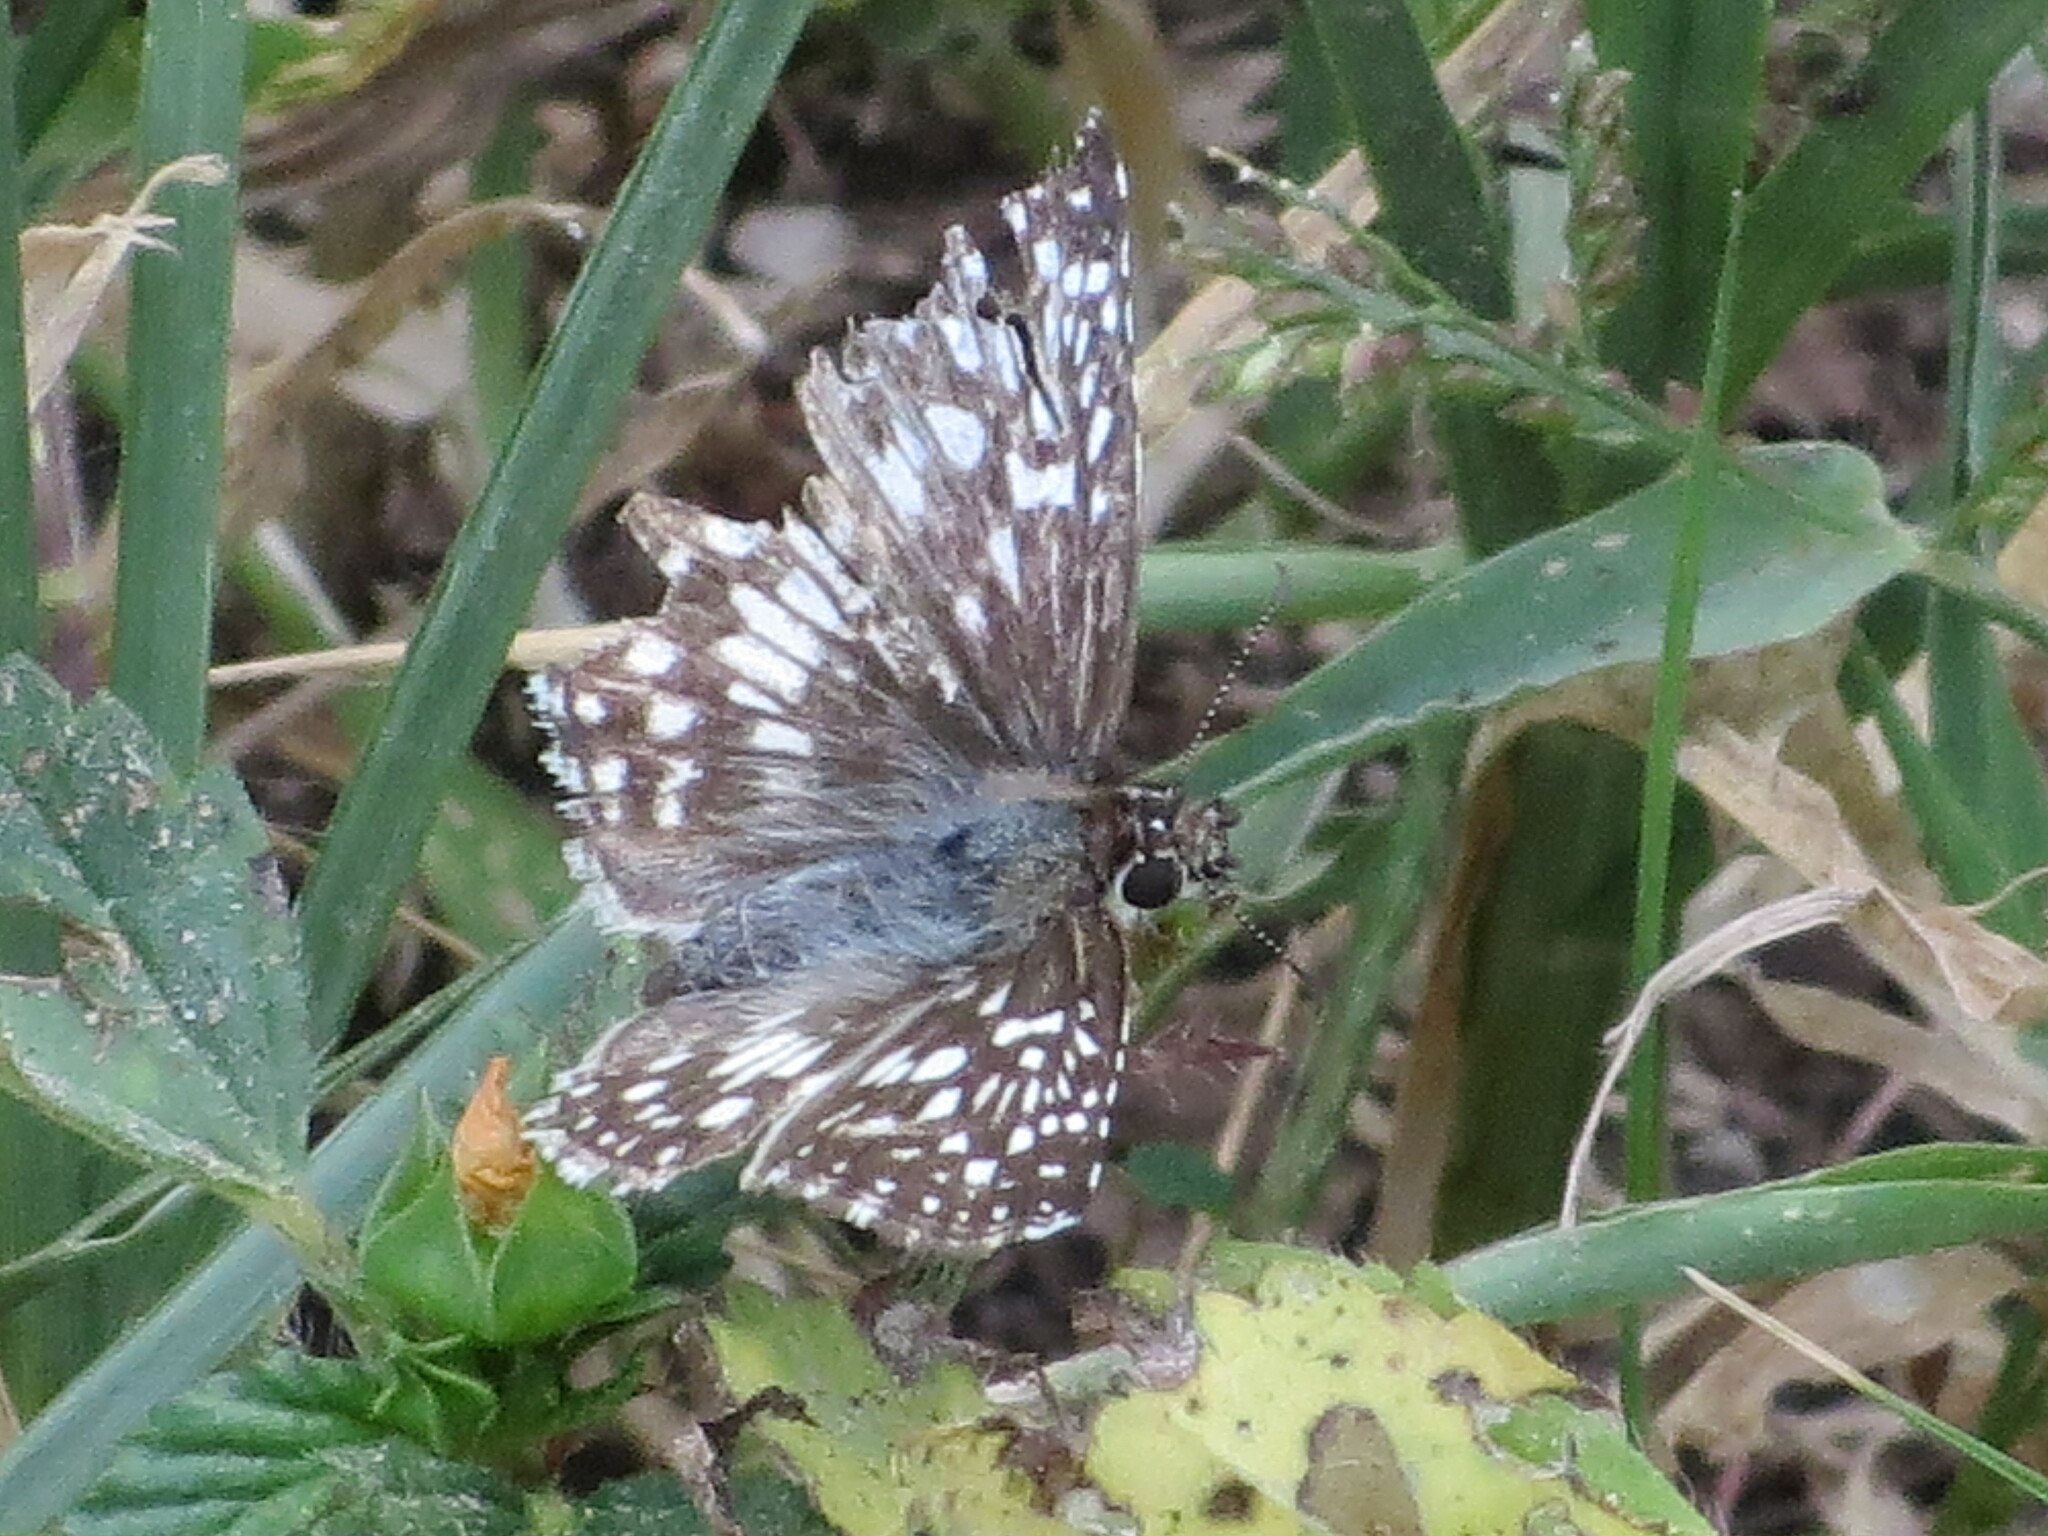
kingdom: Animalia
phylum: Arthropoda
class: Insecta
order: Lepidoptera
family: Hesperiidae
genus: Pyrgus
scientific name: Pyrgus oileus
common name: Tropical checkered-skipper
